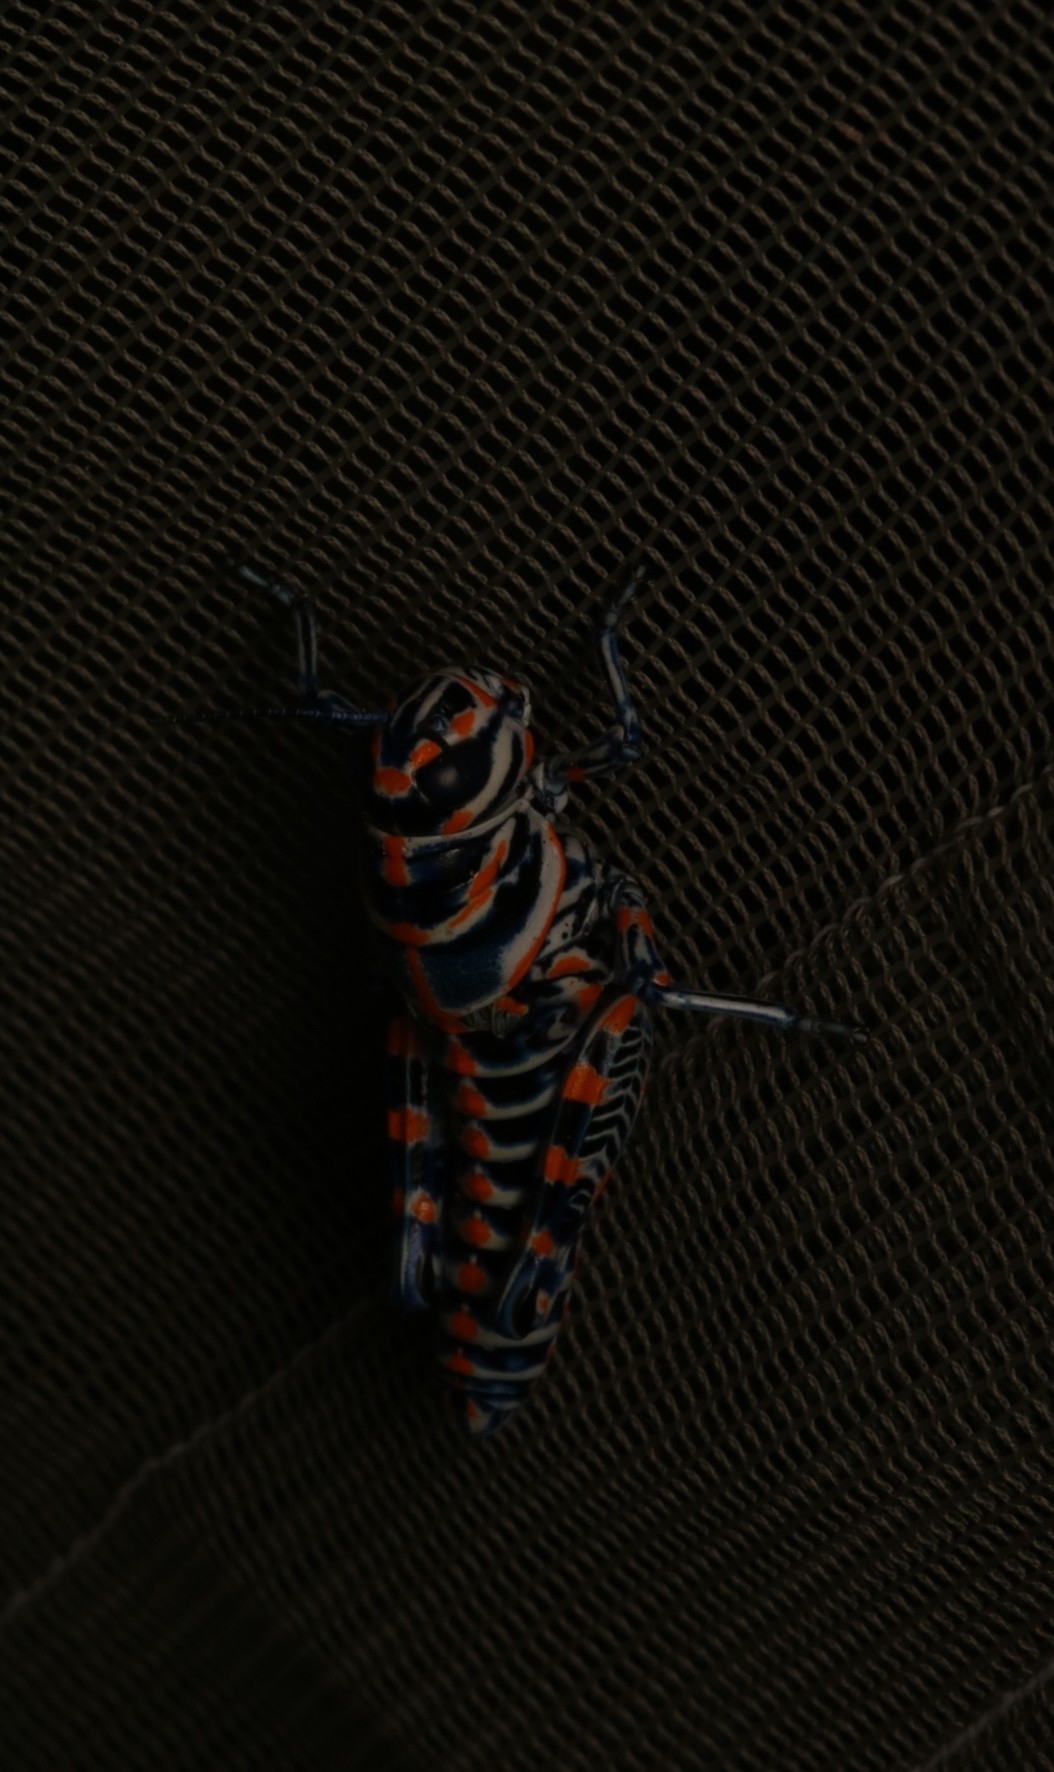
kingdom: Animalia
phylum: Arthropoda
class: Insecta
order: Orthoptera
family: Acrididae
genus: Dactylotum
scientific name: Dactylotum bicolor
